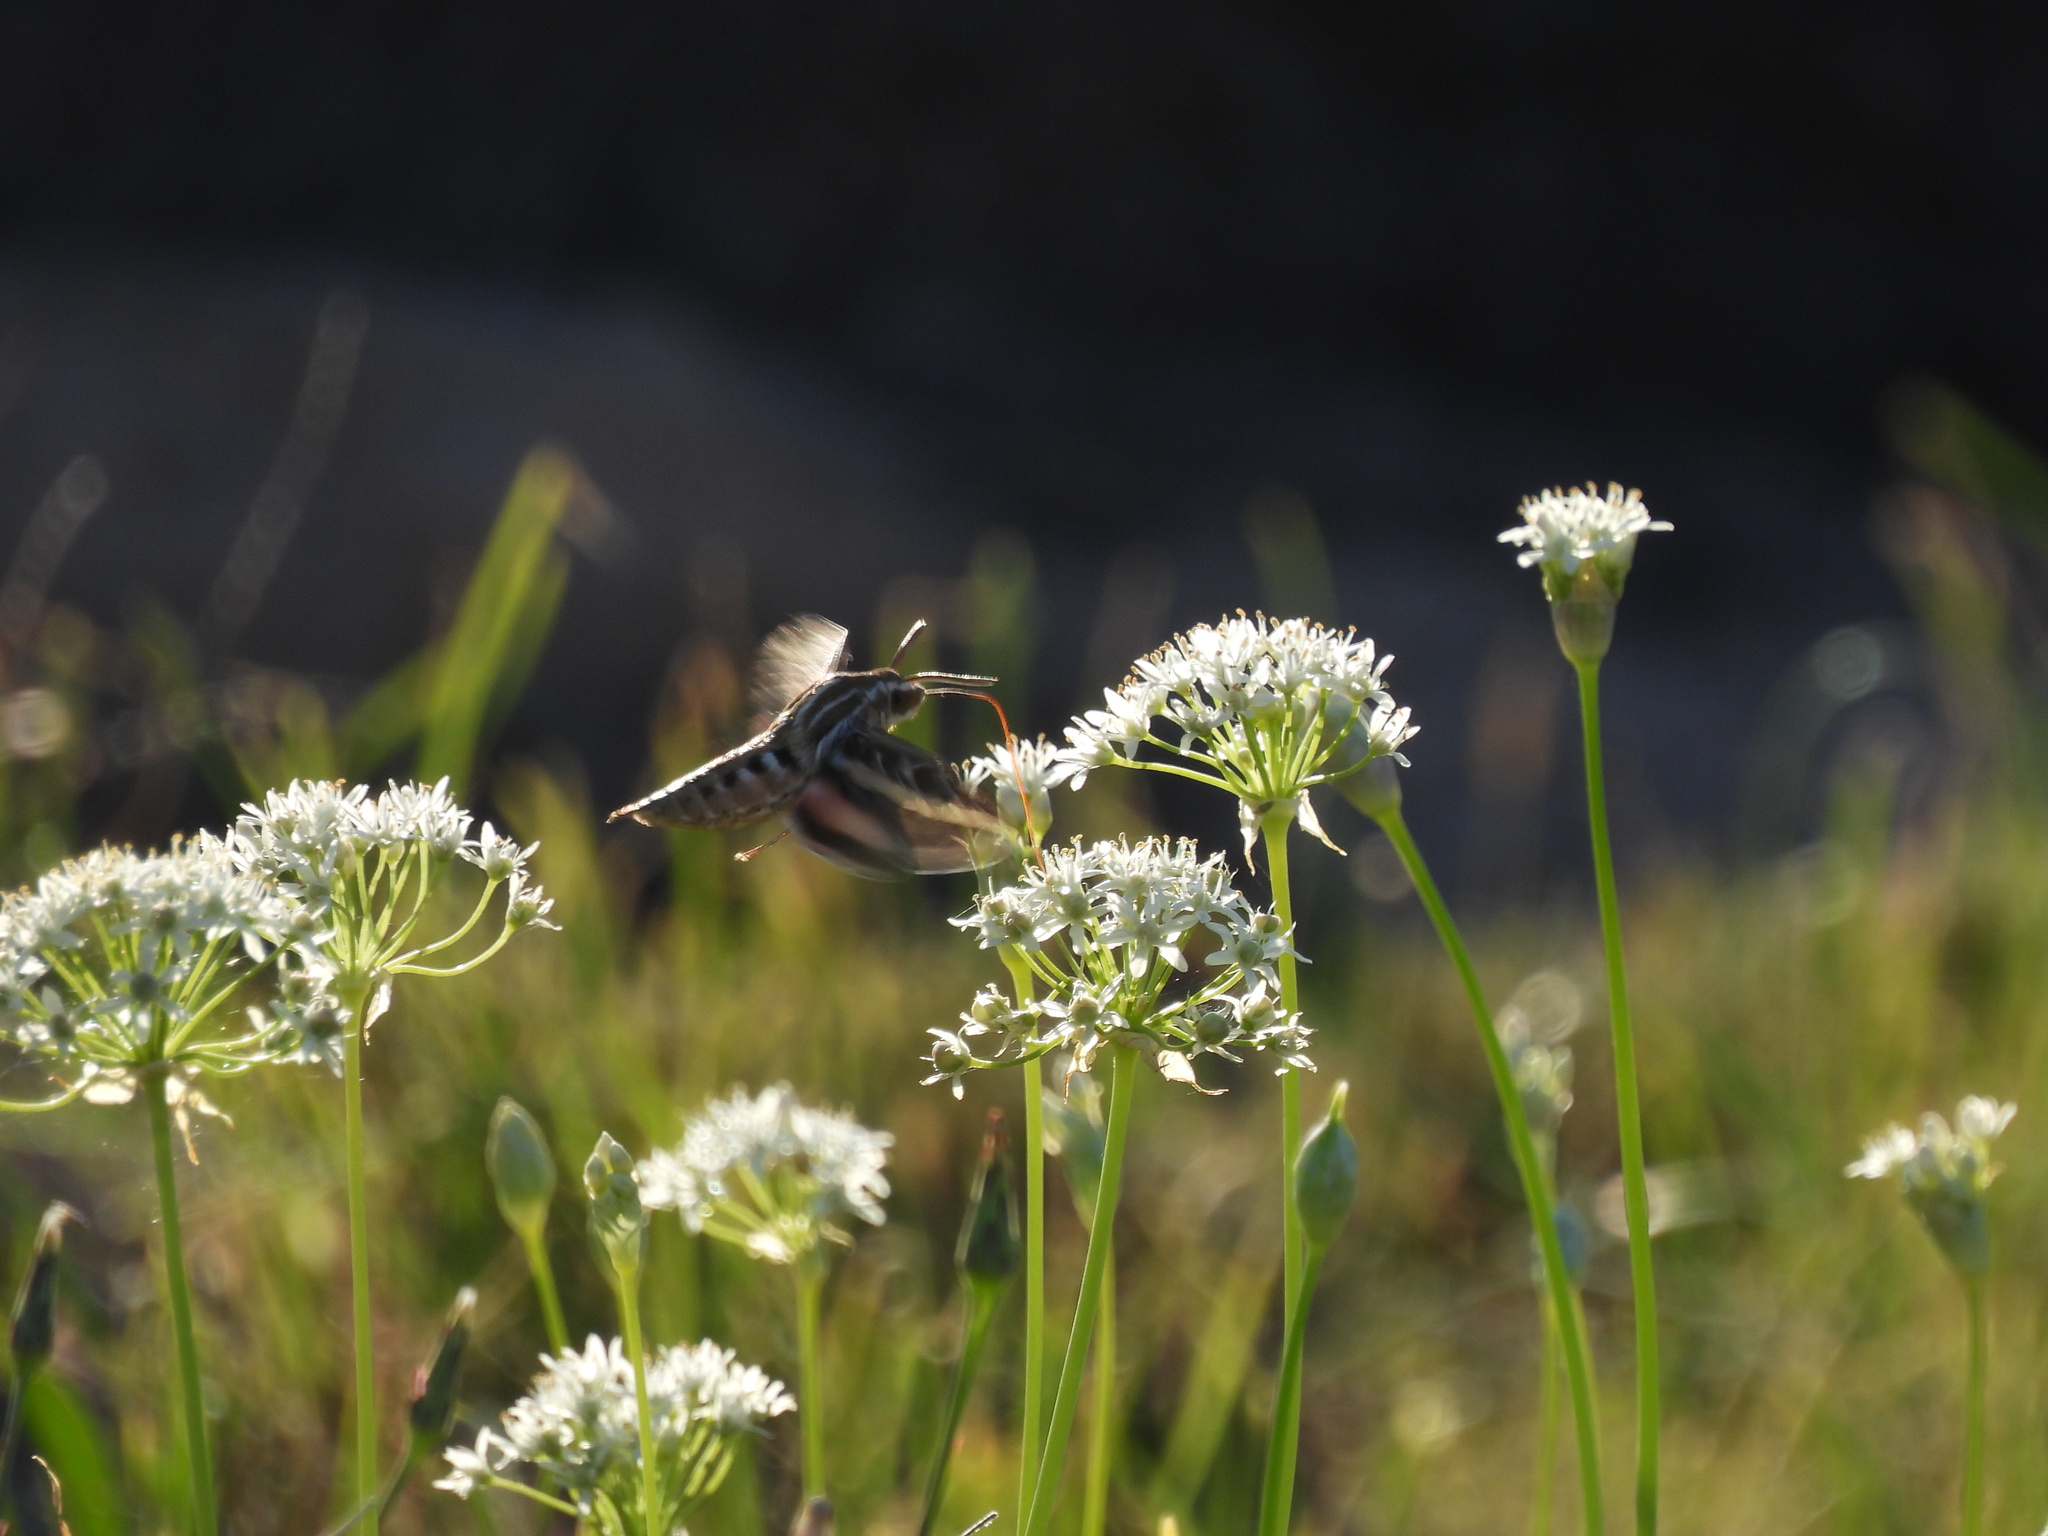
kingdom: Animalia
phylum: Arthropoda
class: Insecta
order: Lepidoptera
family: Sphingidae
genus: Hyles
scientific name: Hyles lineata
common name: White-lined sphinx
